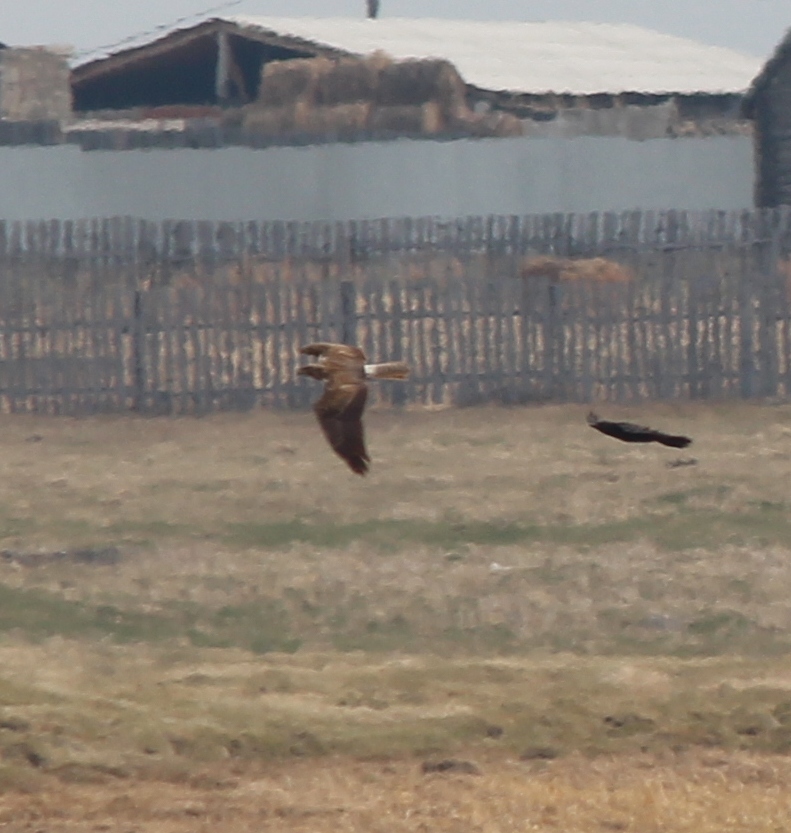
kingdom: Animalia
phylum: Chordata
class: Aves
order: Accipitriformes
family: Accipitridae
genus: Circus
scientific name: Circus spilonotus
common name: Eastern marsh-harrier
